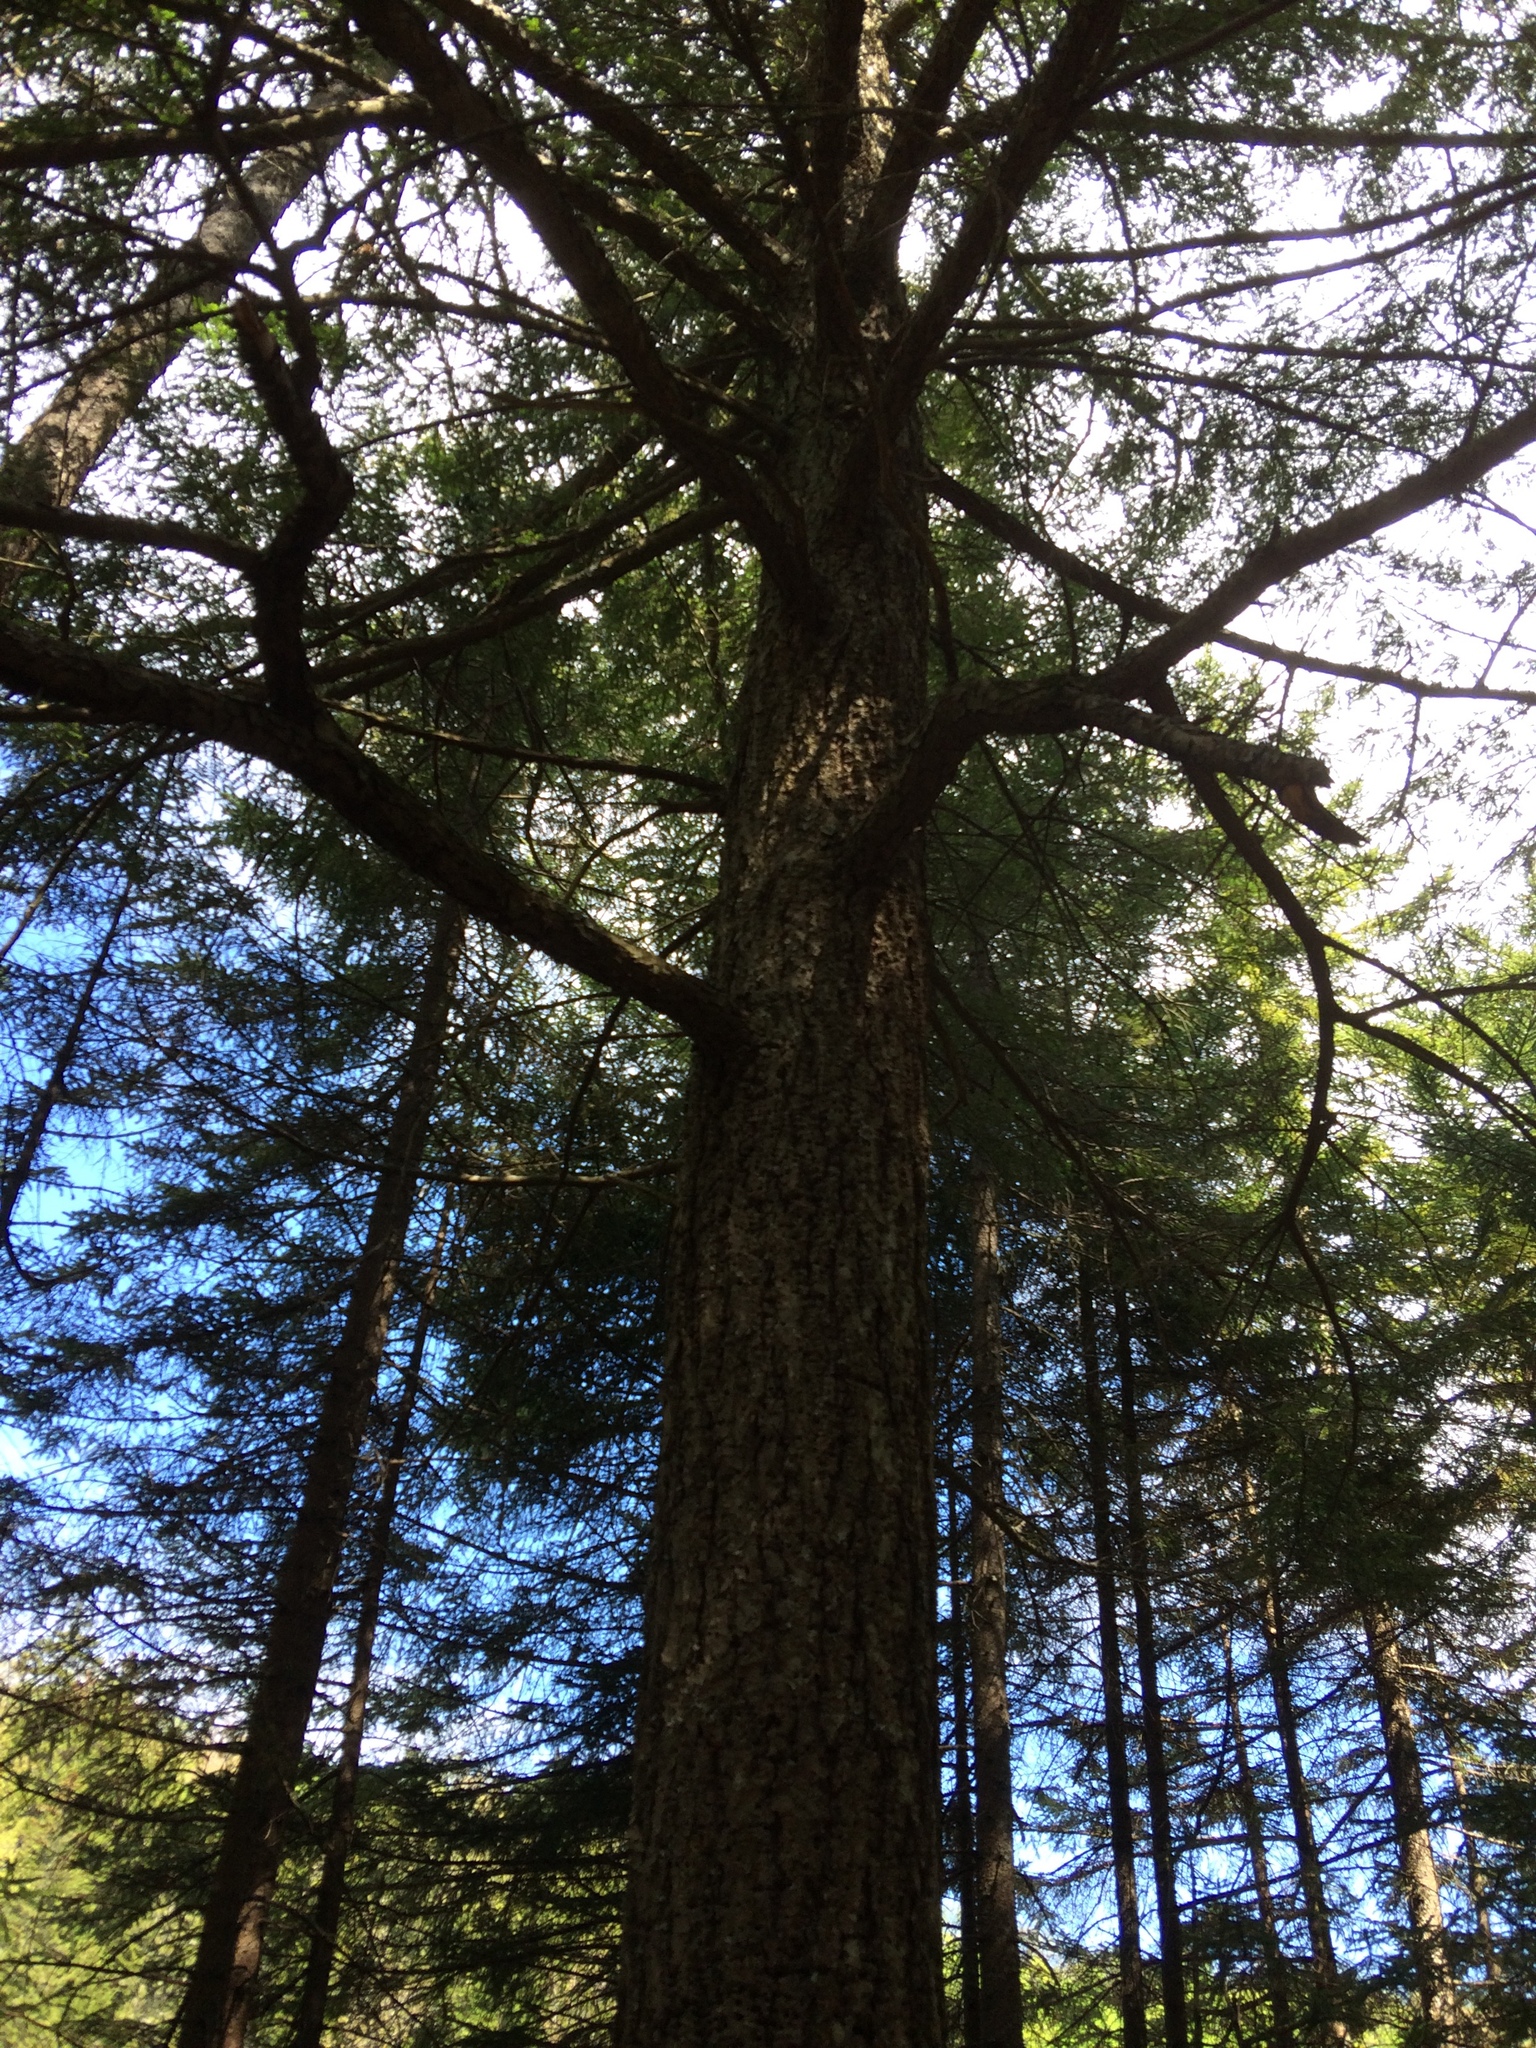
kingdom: Plantae
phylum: Tracheophyta
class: Pinopsida
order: Pinales
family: Pinaceae
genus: Tsuga
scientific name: Tsuga canadensis
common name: Eastern hemlock
